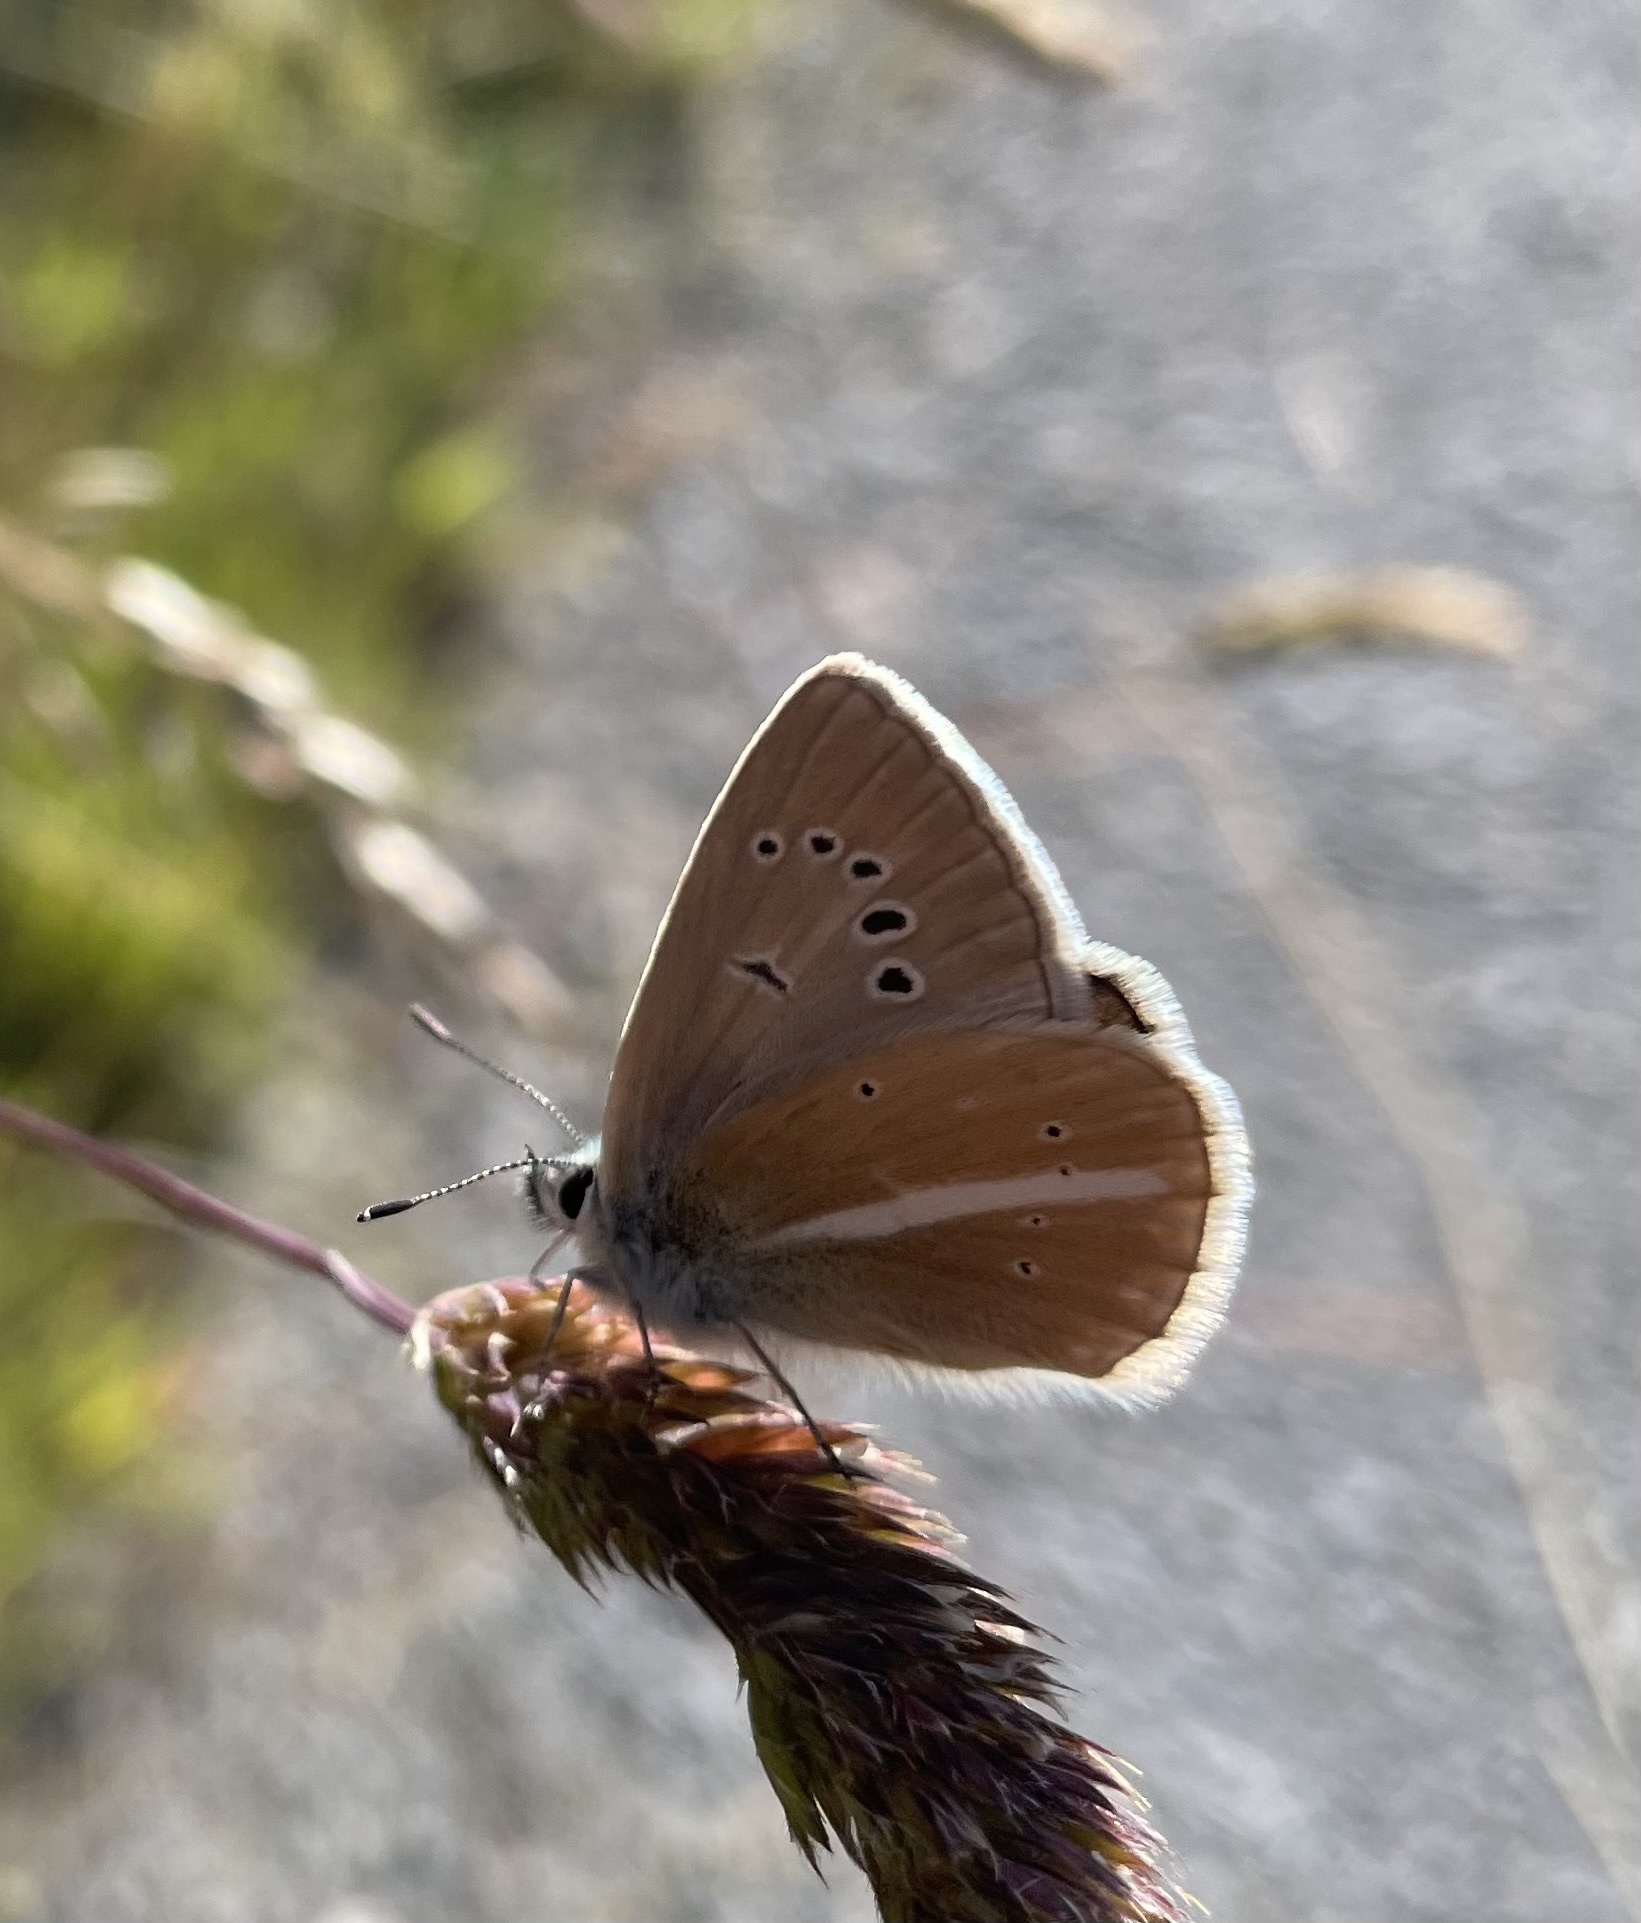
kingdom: Animalia
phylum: Arthropoda
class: Insecta
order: Lepidoptera
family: Lycaenidae
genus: Agrodiaetus
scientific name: Agrodiaetus damon
